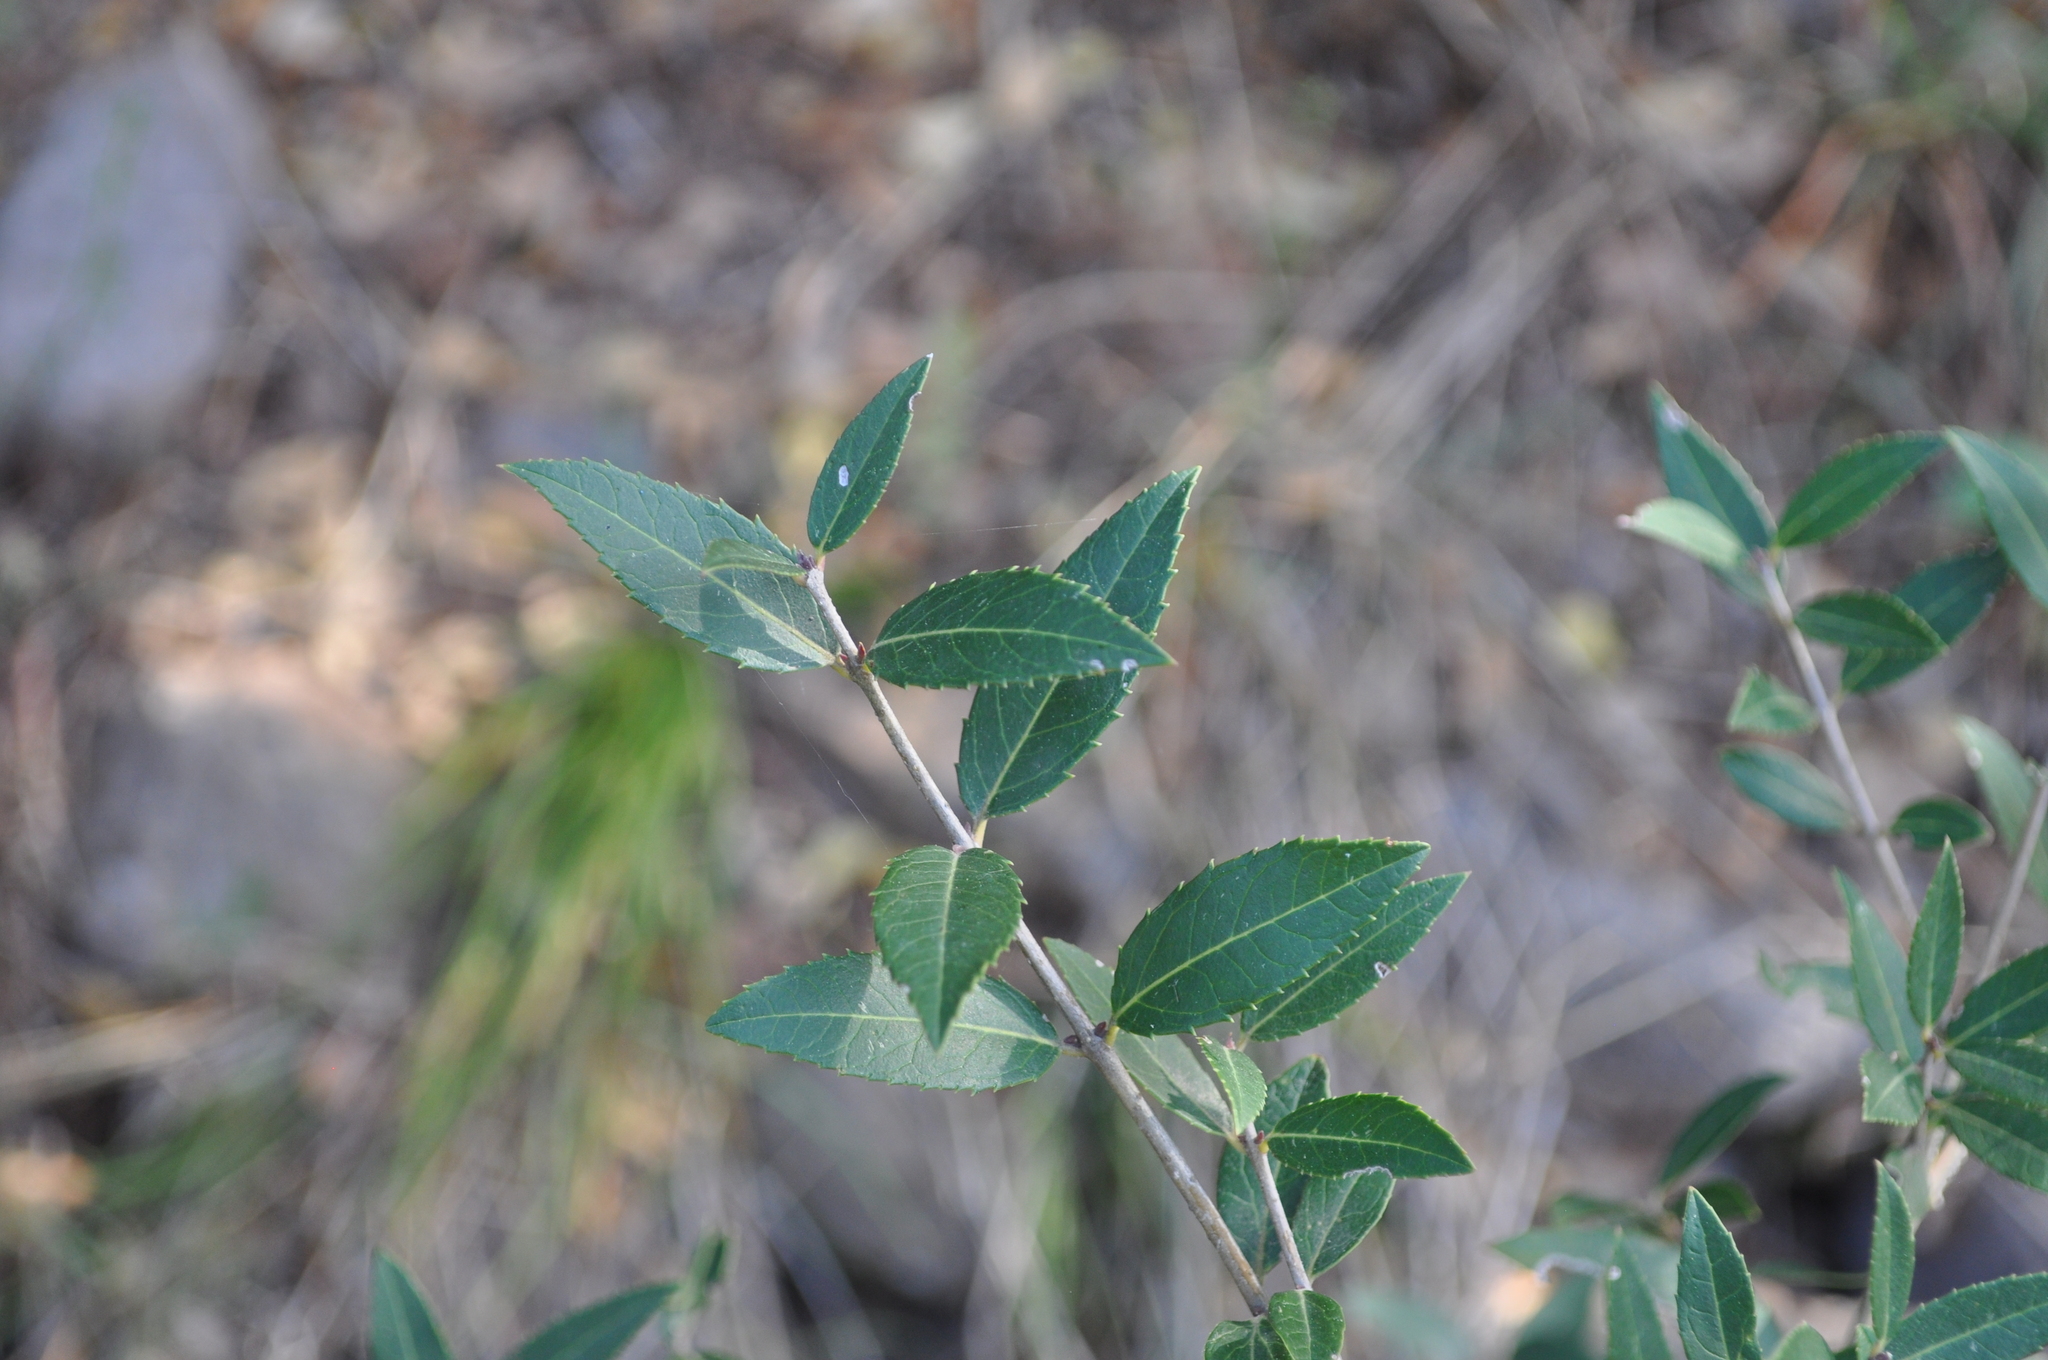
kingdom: Plantae
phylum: Tracheophyta
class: Magnoliopsida
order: Lamiales
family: Oleaceae
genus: Phillyrea
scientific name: Phillyrea latifolia
